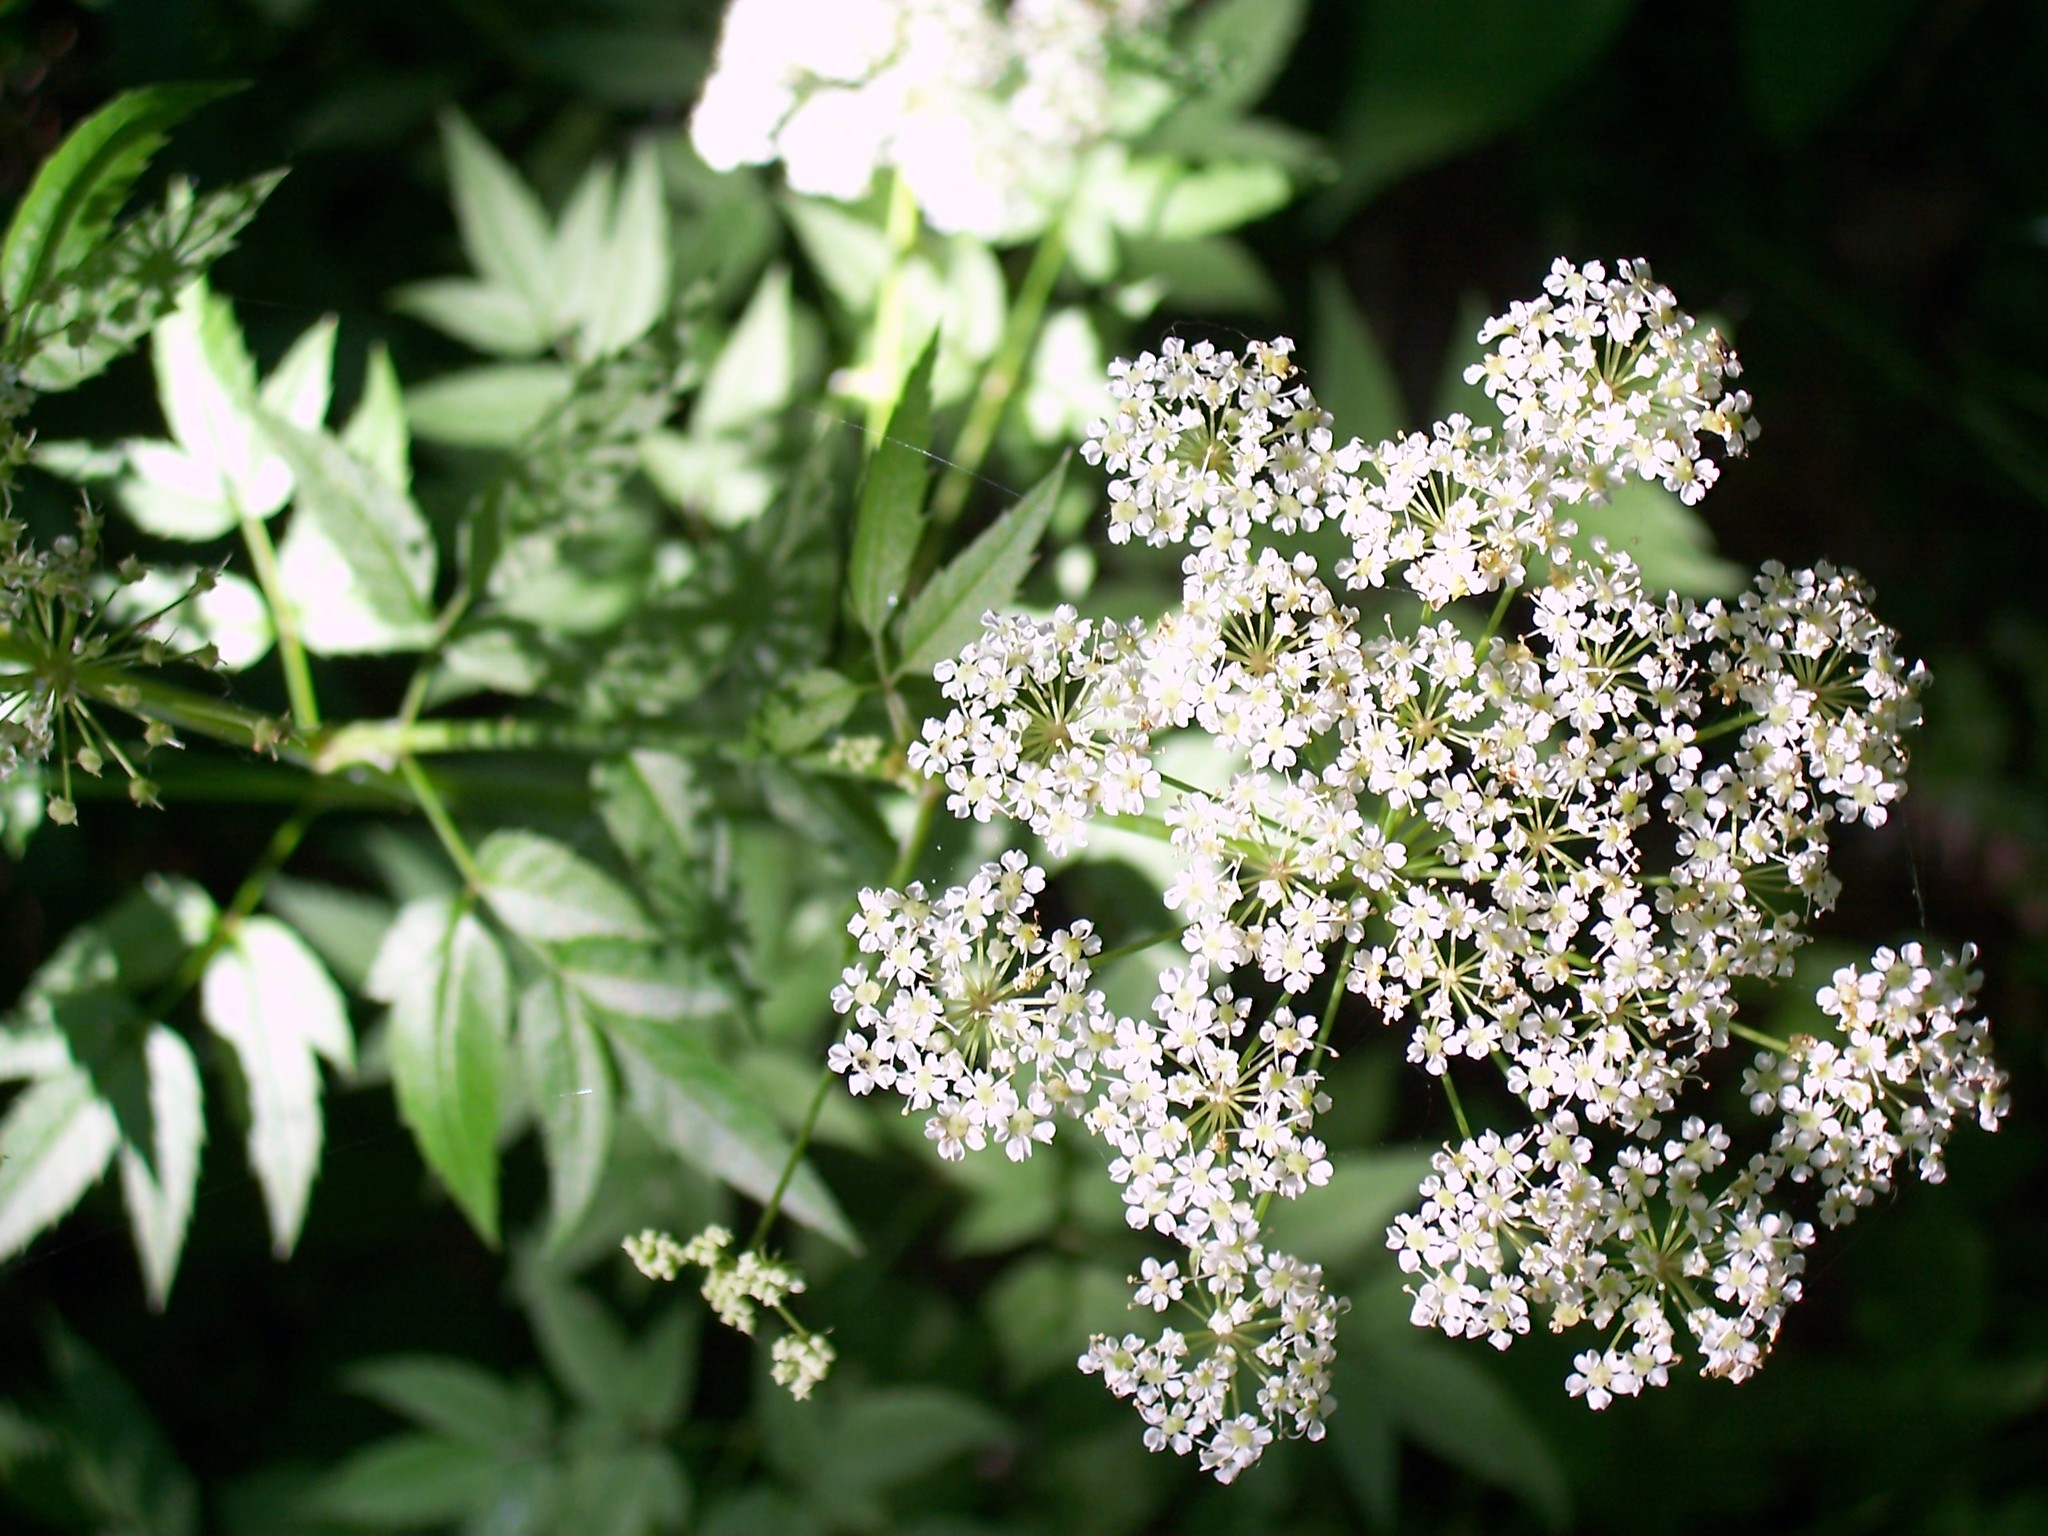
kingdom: Plantae
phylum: Tracheophyta
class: Magnoliopsida
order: Apiales
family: Apiaceae
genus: Cicuta
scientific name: Cicuta maculata
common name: Spotted cowbane
